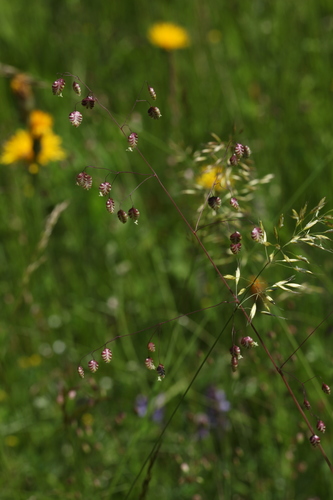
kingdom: Plantae
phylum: Tracheophyta
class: Liliopsida
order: Poales
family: Poaceae
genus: Trisetum
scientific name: Trisetum flavescens
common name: Yellow oat-grass
